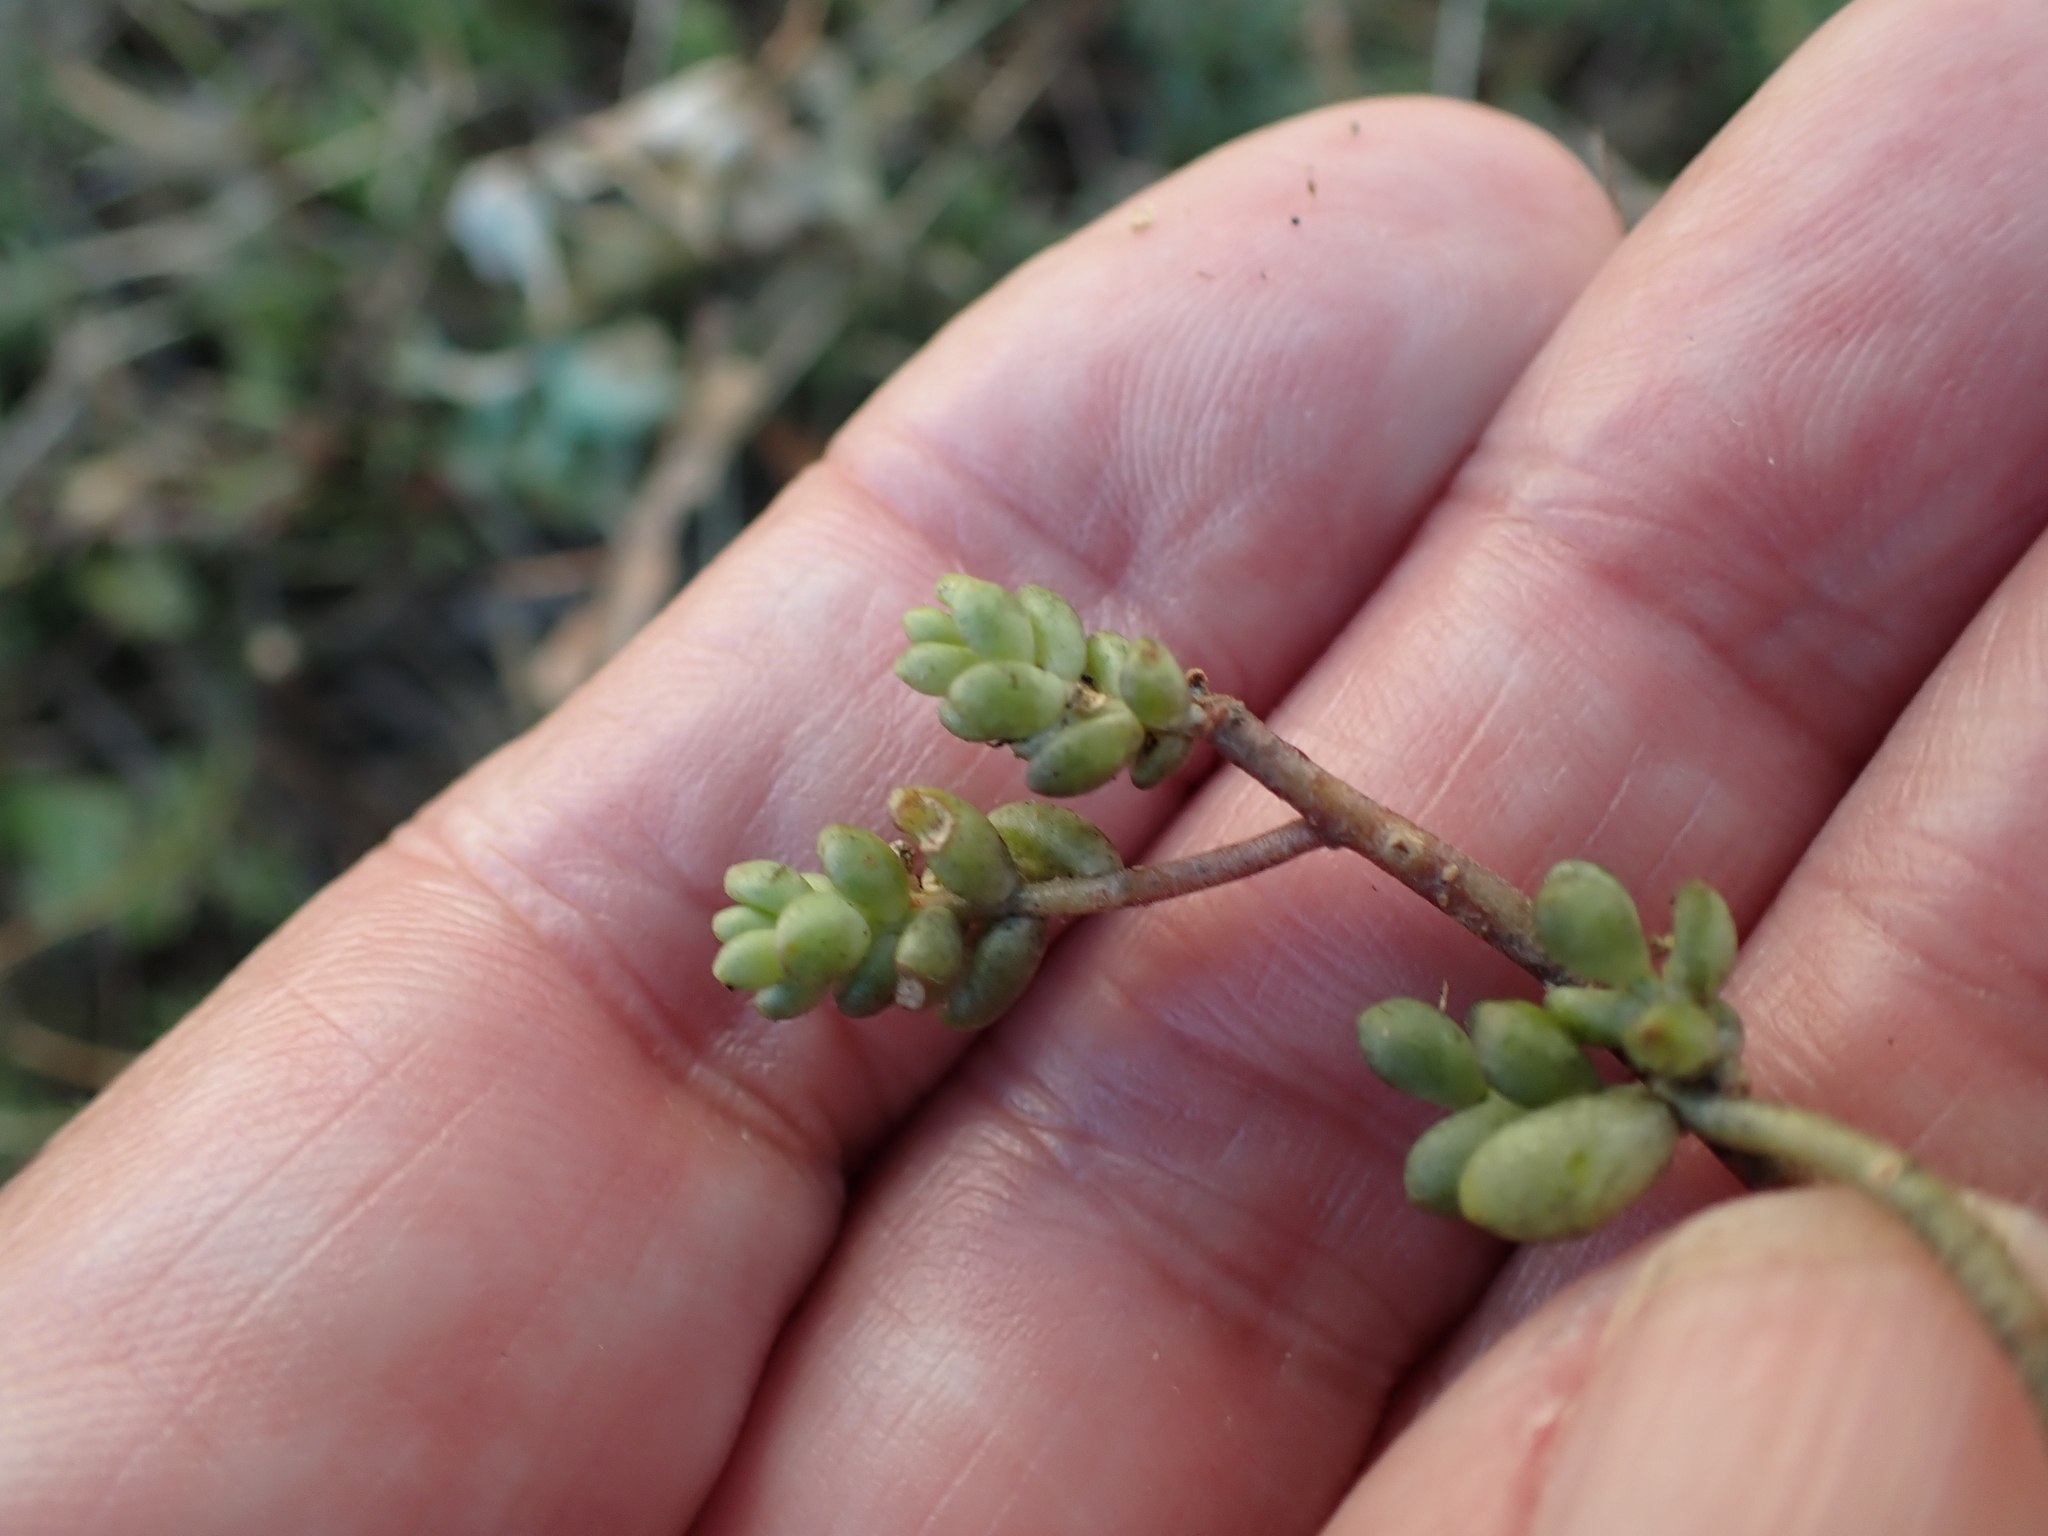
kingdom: Plantae
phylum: Tracheophyta
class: Magnoliopsida
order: Saxifragales
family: Crassulaceae
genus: Sedum
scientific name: Sedum album
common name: White stonecrop
